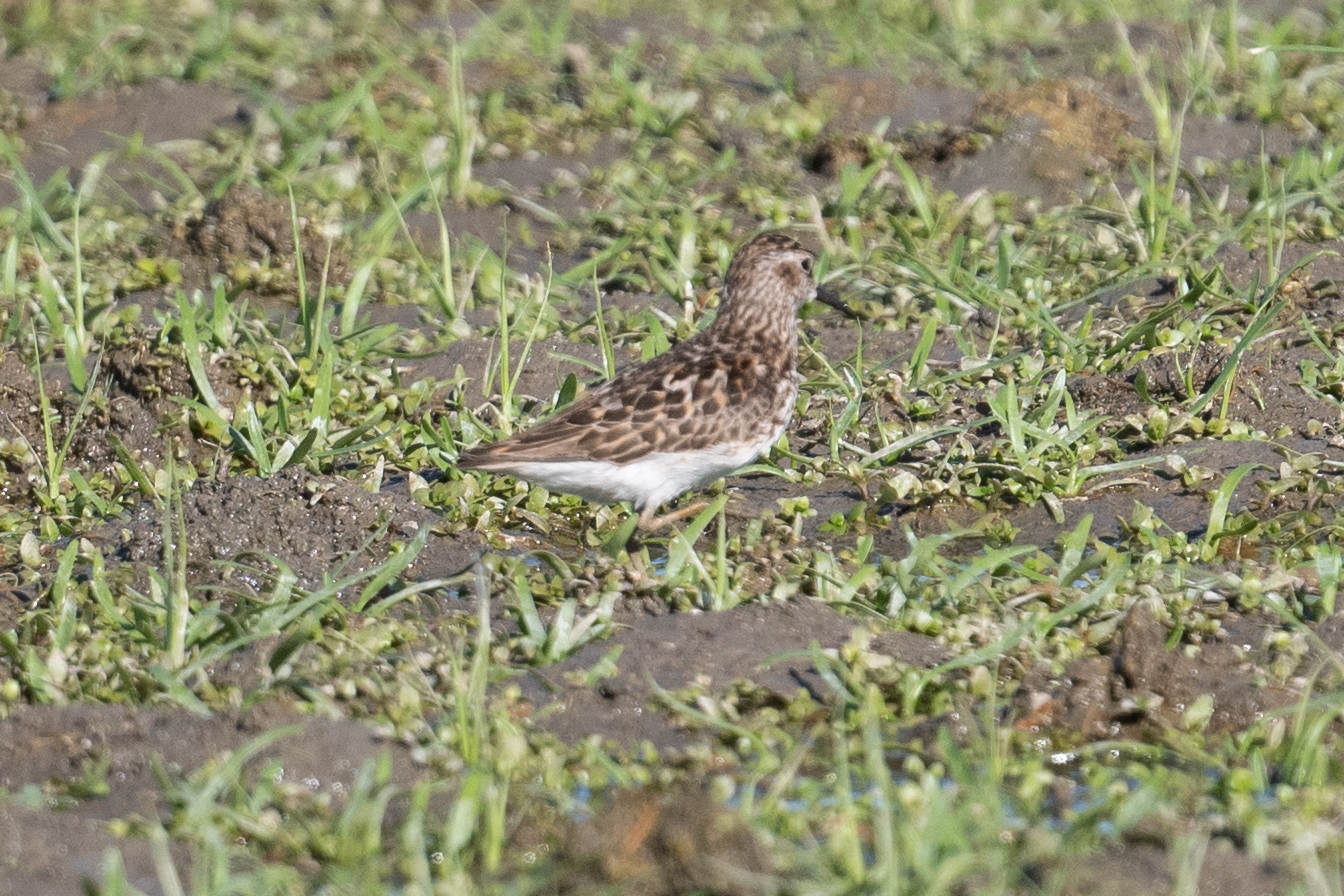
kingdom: Animalia
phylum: Chordata
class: Aves
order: Charadriiformes
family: Scolopacidae
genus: Calidris
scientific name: Calidris minutilla
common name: Least sandpiper
